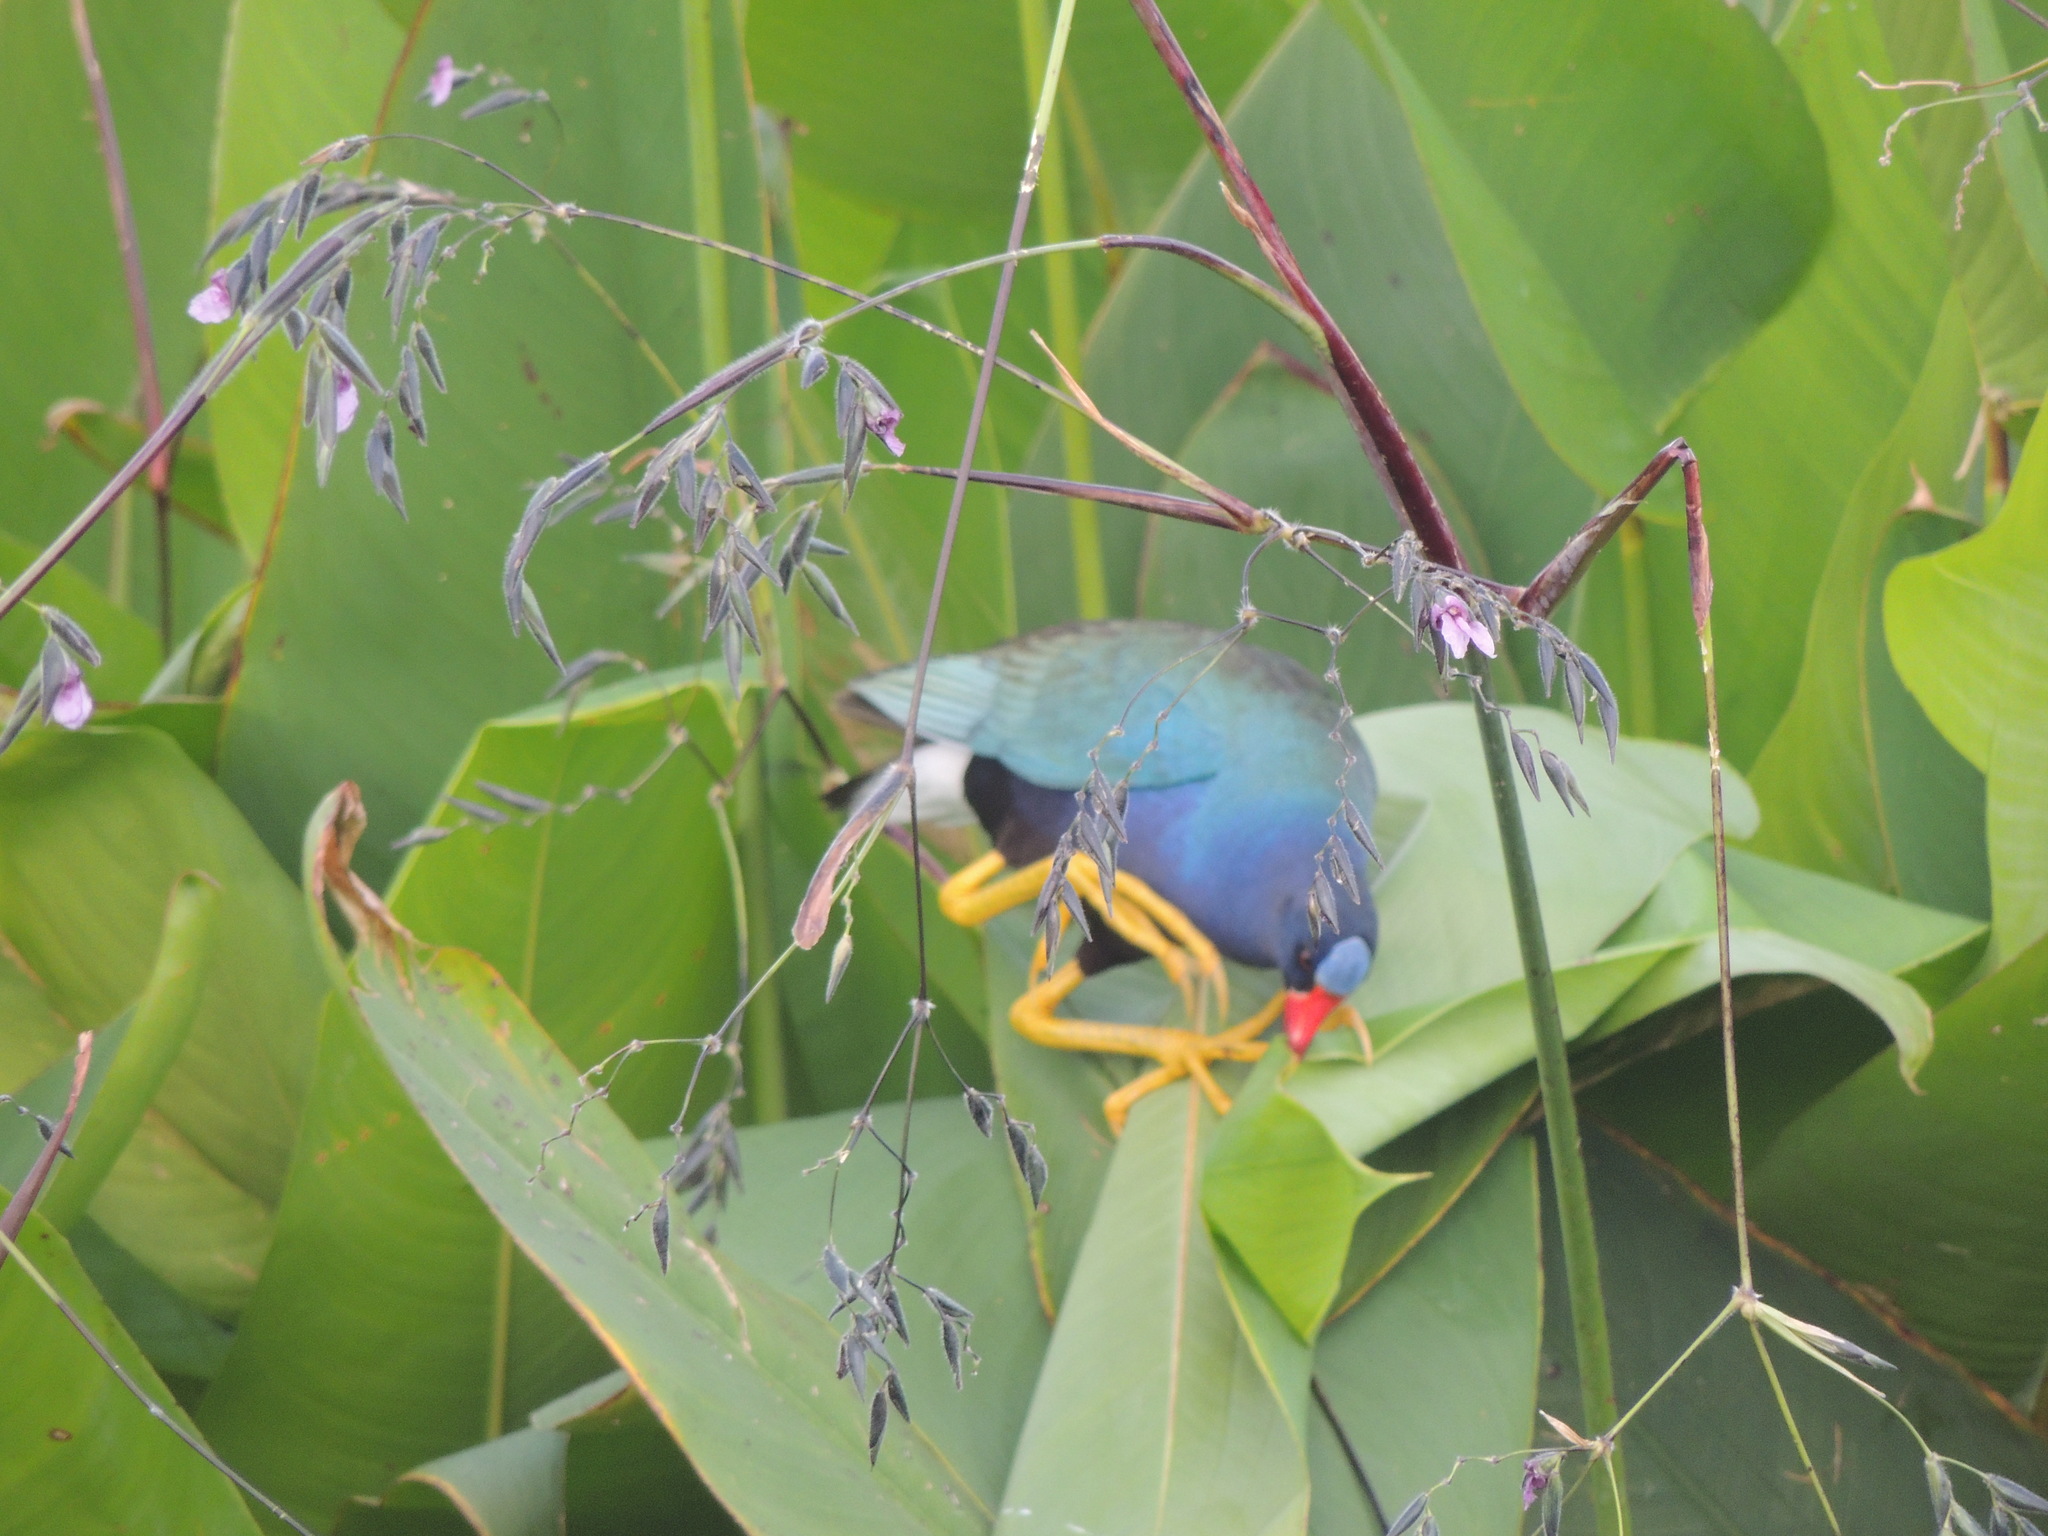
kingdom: Animalia
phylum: Chordata
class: Aves
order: Gruiformes
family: Rallidae
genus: Porphyrio
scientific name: Porphyrio martinica
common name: Purple gallinule
